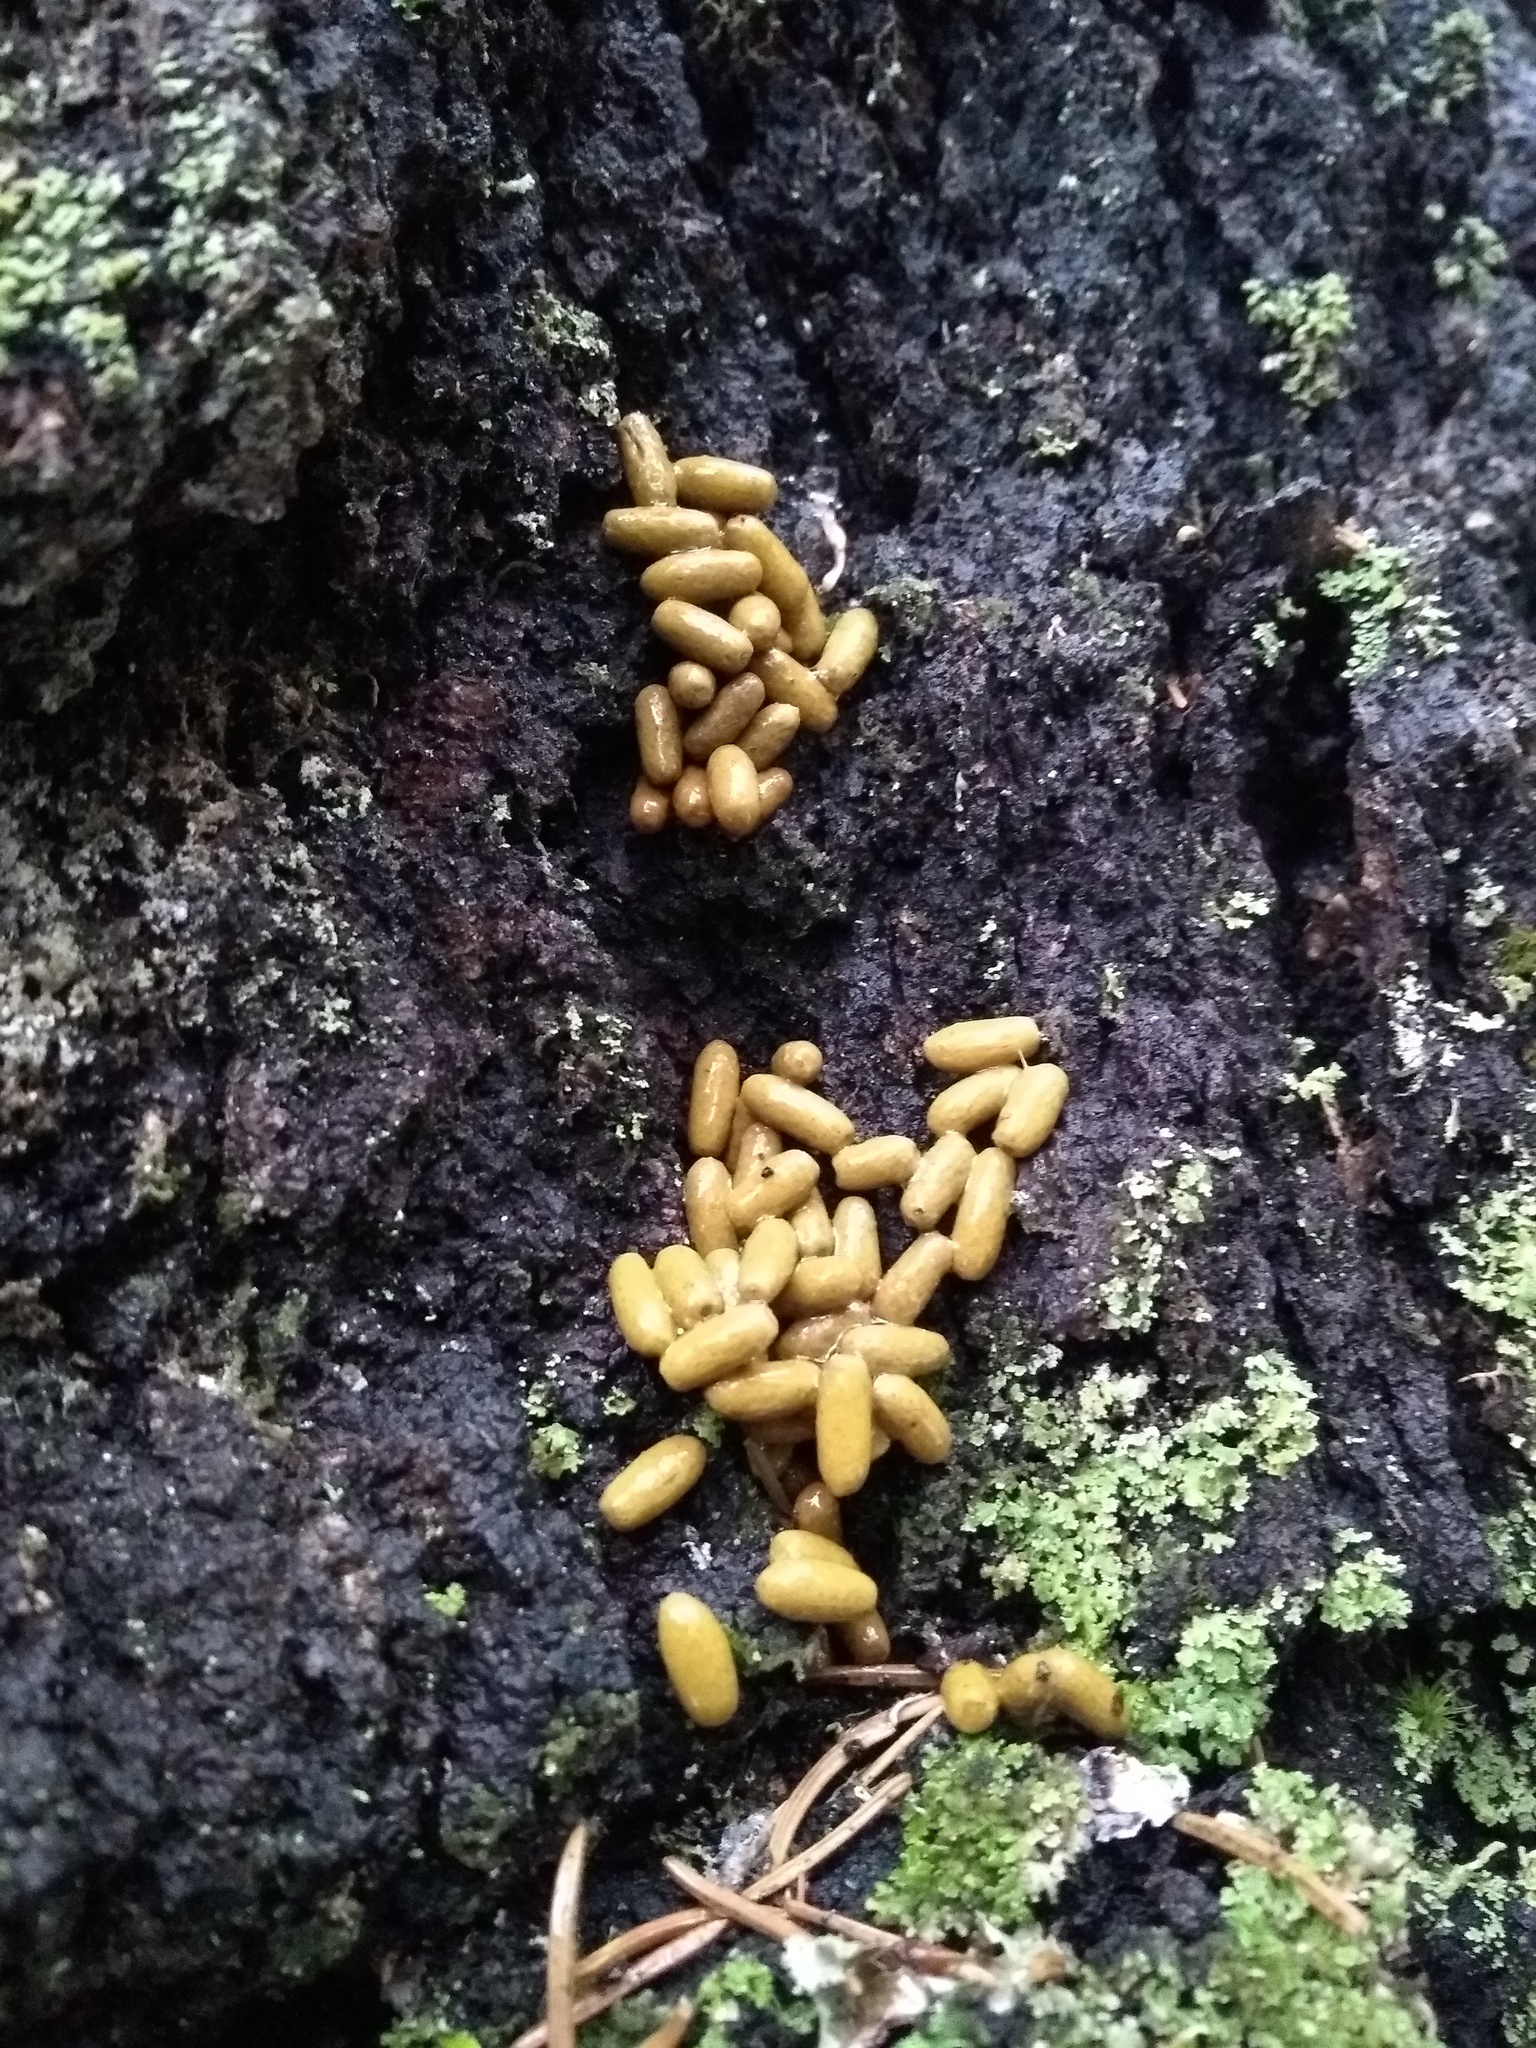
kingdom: Animalia
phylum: Chordata
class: Mammalia
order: Rodentia
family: Sciuridae
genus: Pteromys
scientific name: Pteromys volans
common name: Siberian flying squirrel
